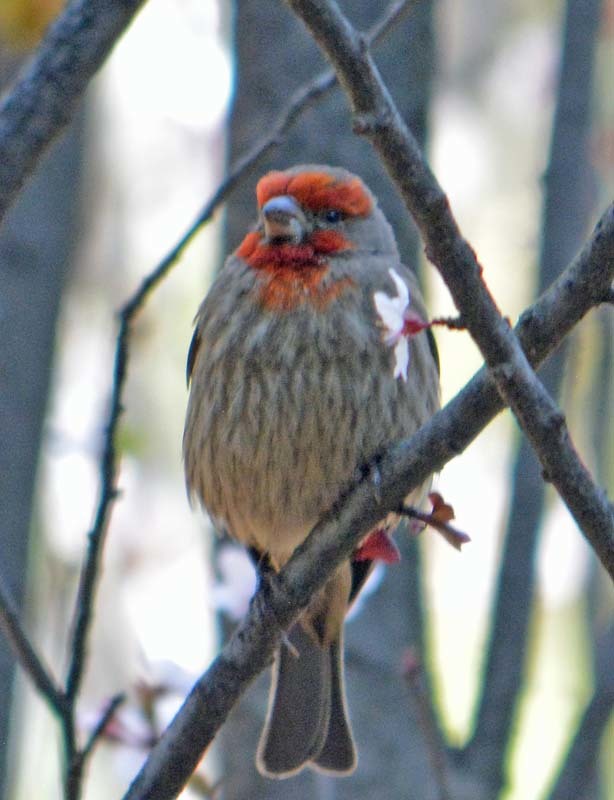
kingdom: Animalia
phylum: Chordata
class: Aves
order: Passeriformes
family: Fringillidae
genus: Haemorhous
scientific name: Haemorhous mexicanus
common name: House finch
